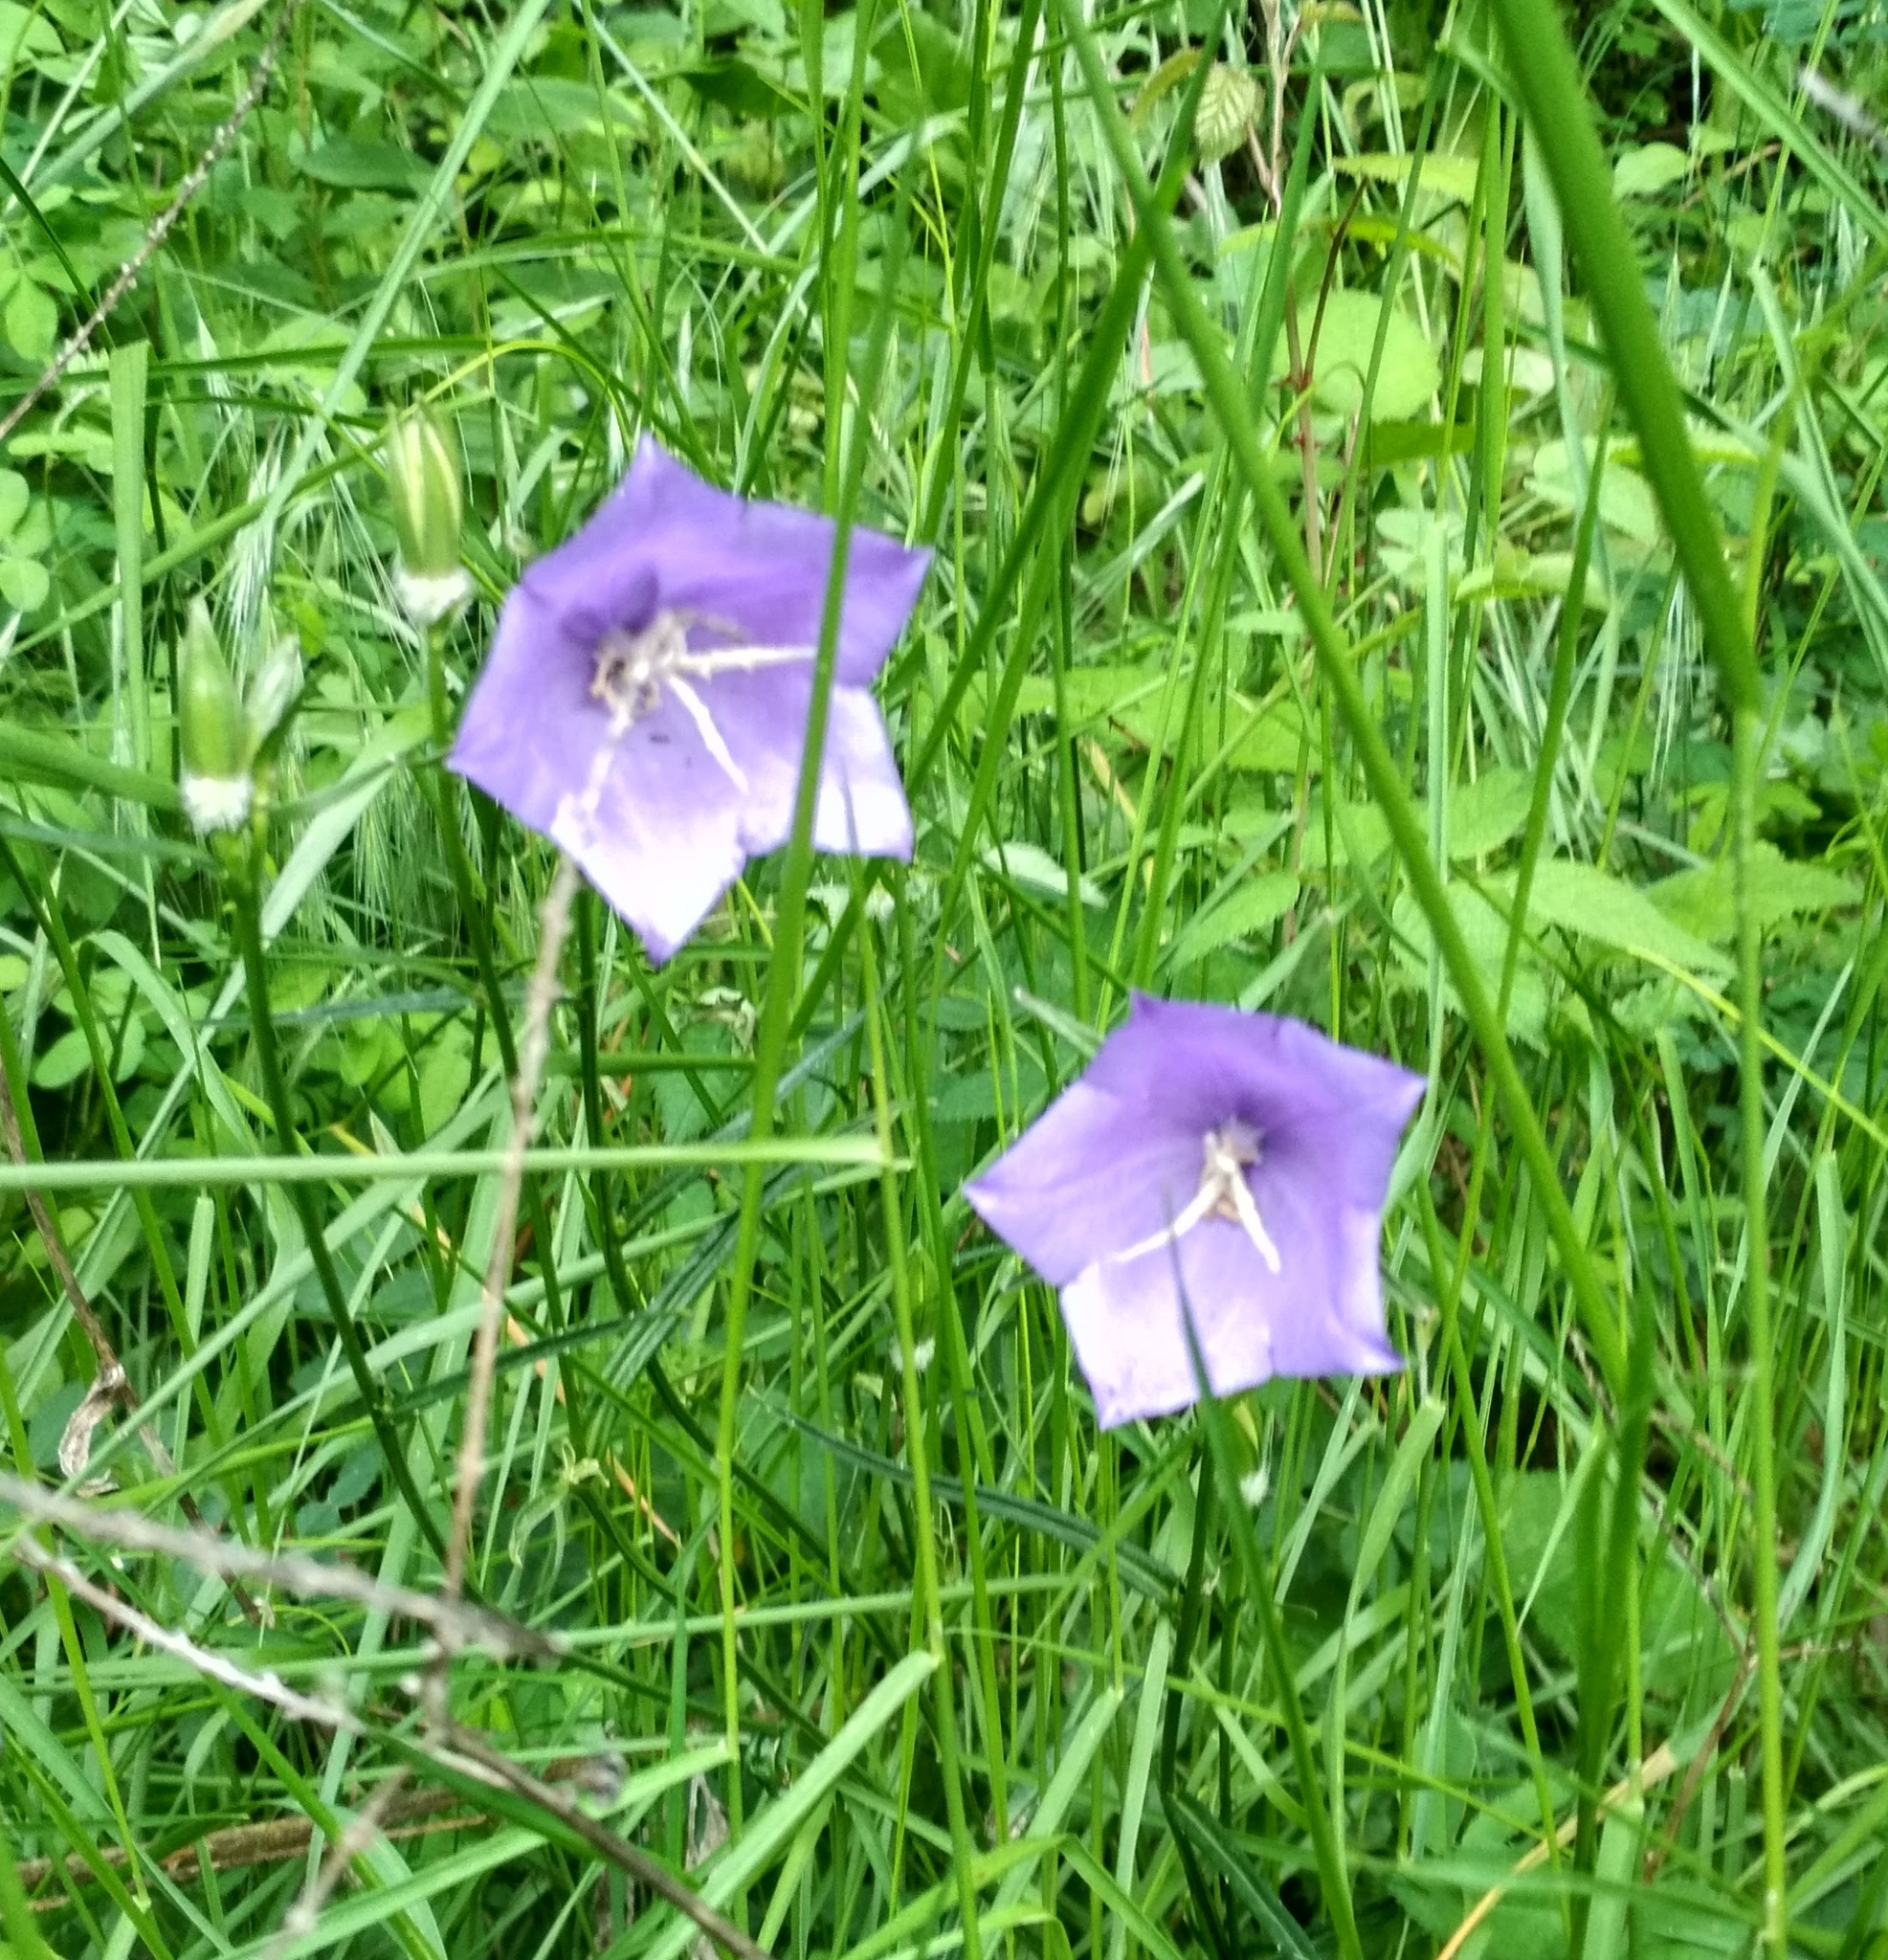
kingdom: Plantae
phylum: Tracheophyta
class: Magnoliopsida
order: Asterales
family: Campanulaceae
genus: Campanula
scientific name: Campanula persicifolia
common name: Peach-leaved bellflower
